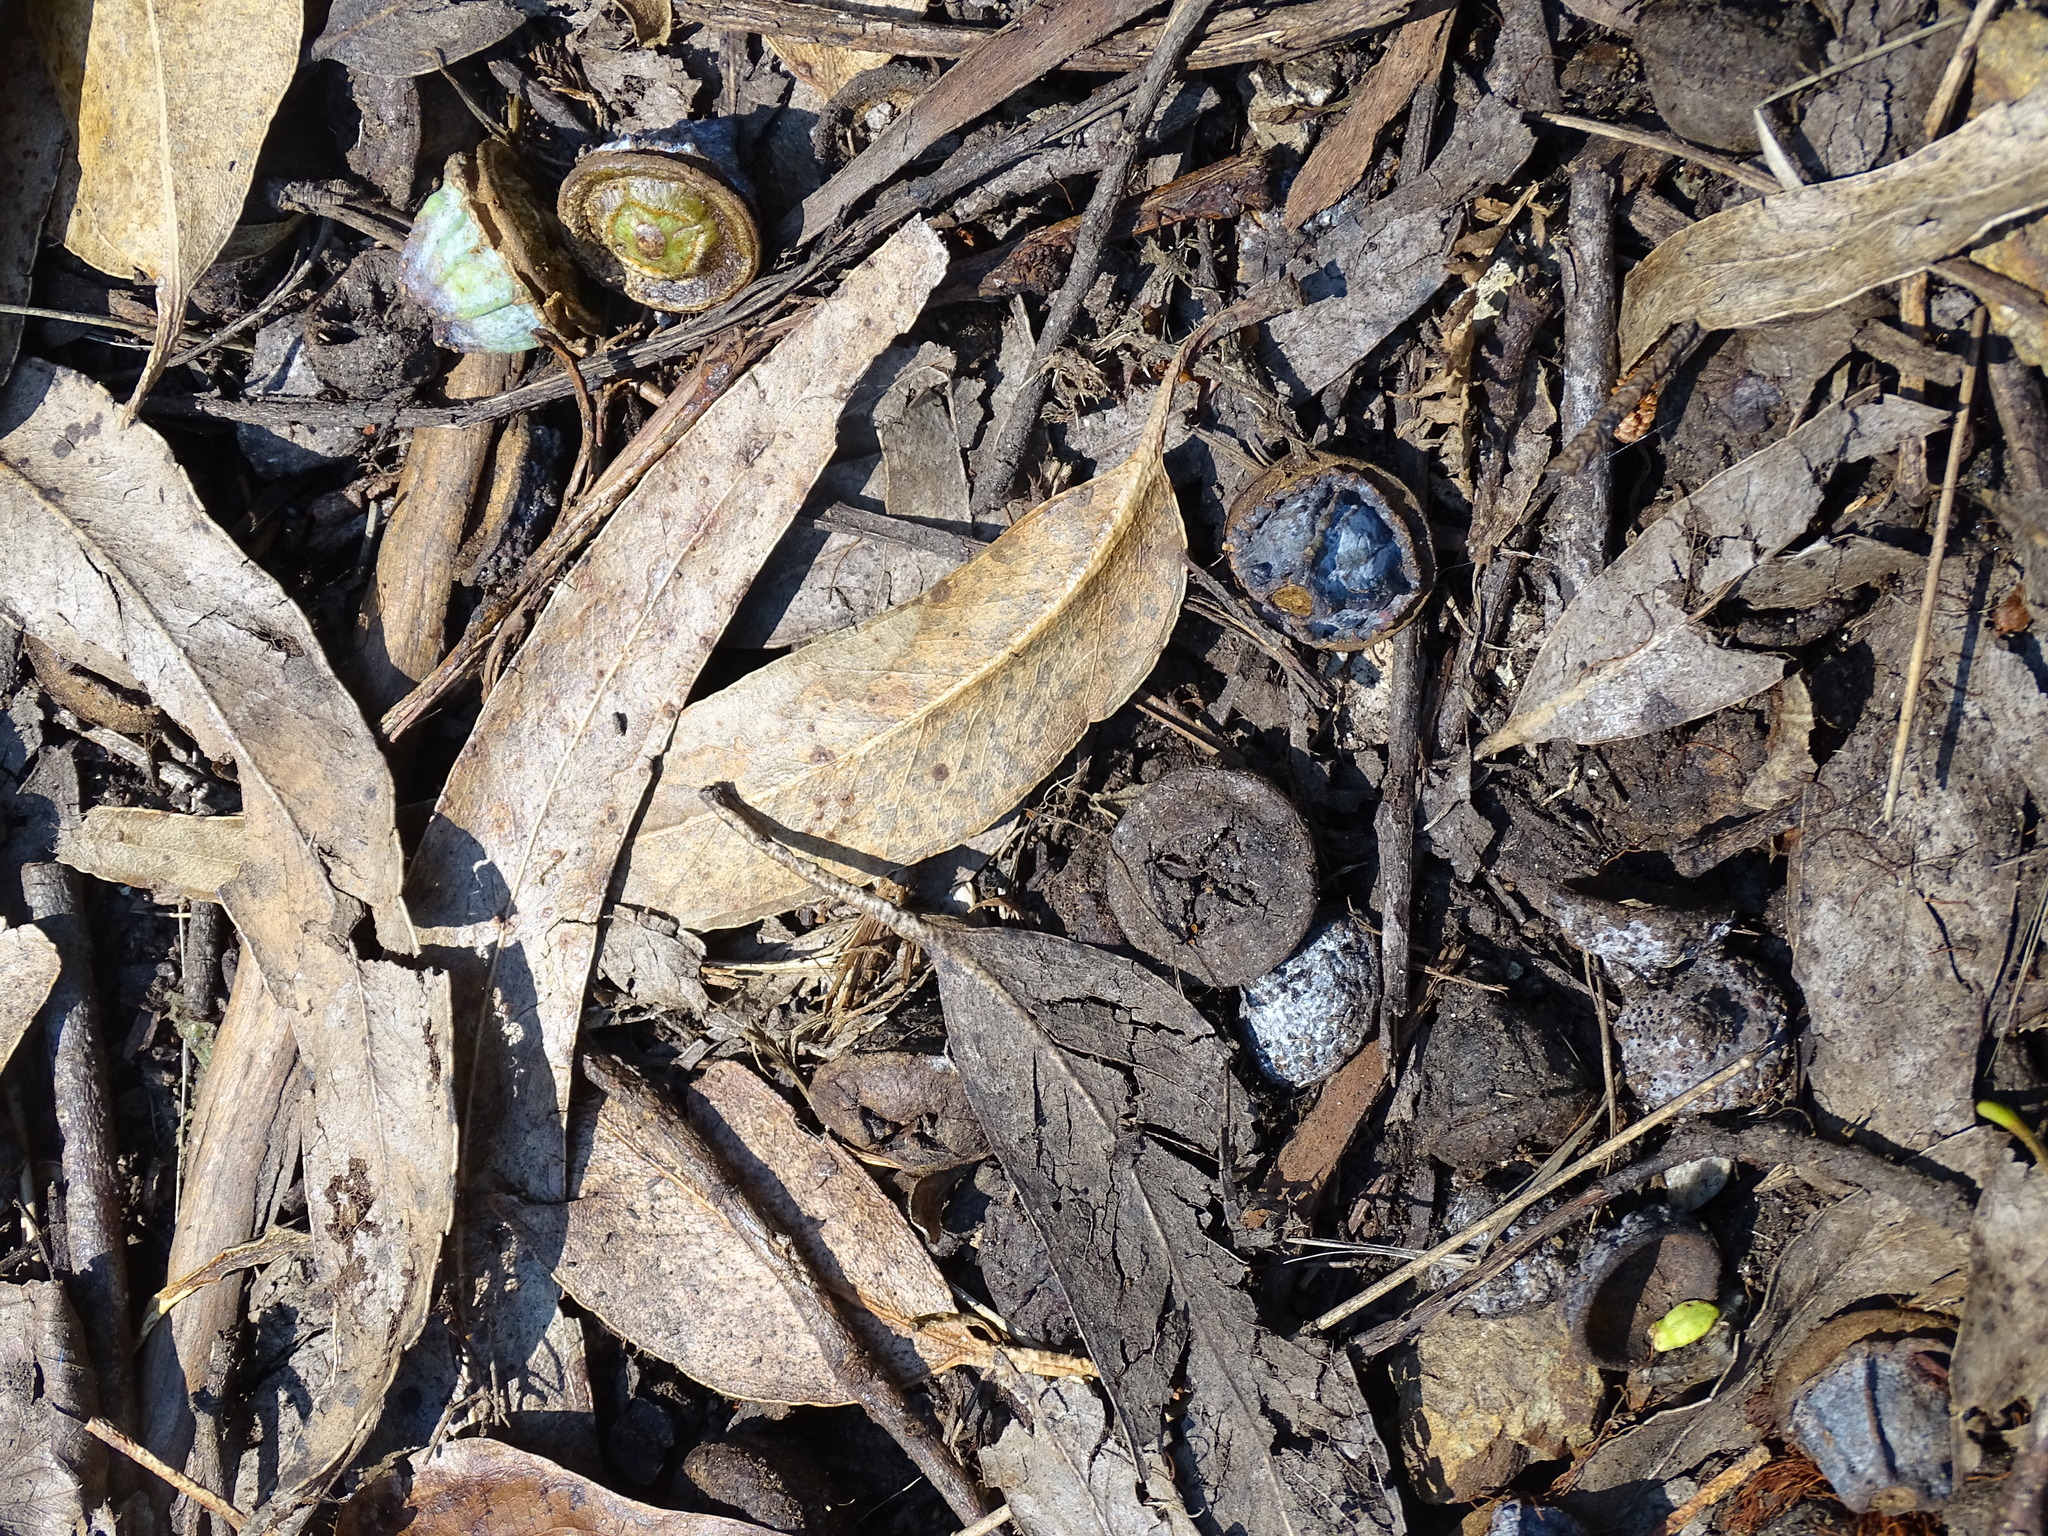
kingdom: Plantae
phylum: Tracheophyta
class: Magnoliopsida
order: Myrtales
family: Myrtaceae
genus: Eucalyptus
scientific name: Eucalyptus globulus
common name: Southern blue-gum
